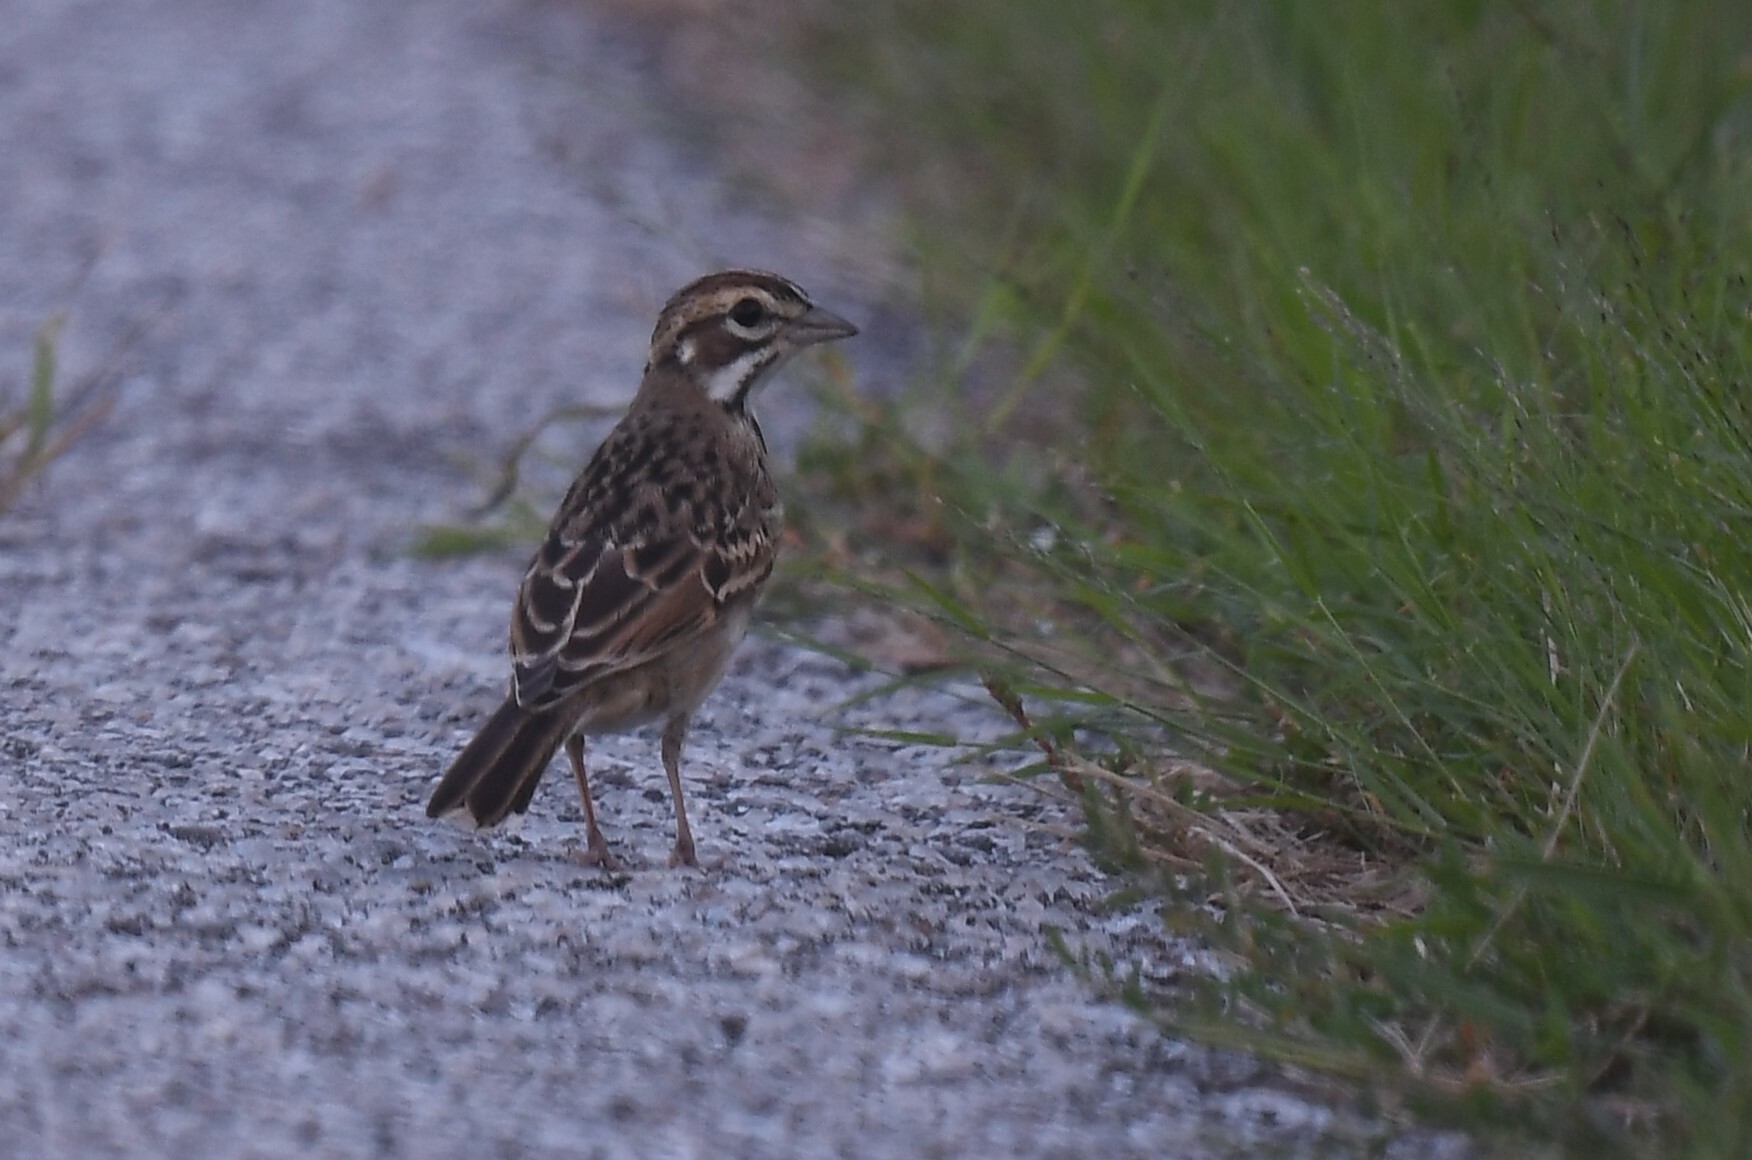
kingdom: Animalia
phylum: Chordata
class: Aves
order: Passeriformes
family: Passerellidae
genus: Chondestes
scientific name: Chondestes grammacus
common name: Lark sparrow
